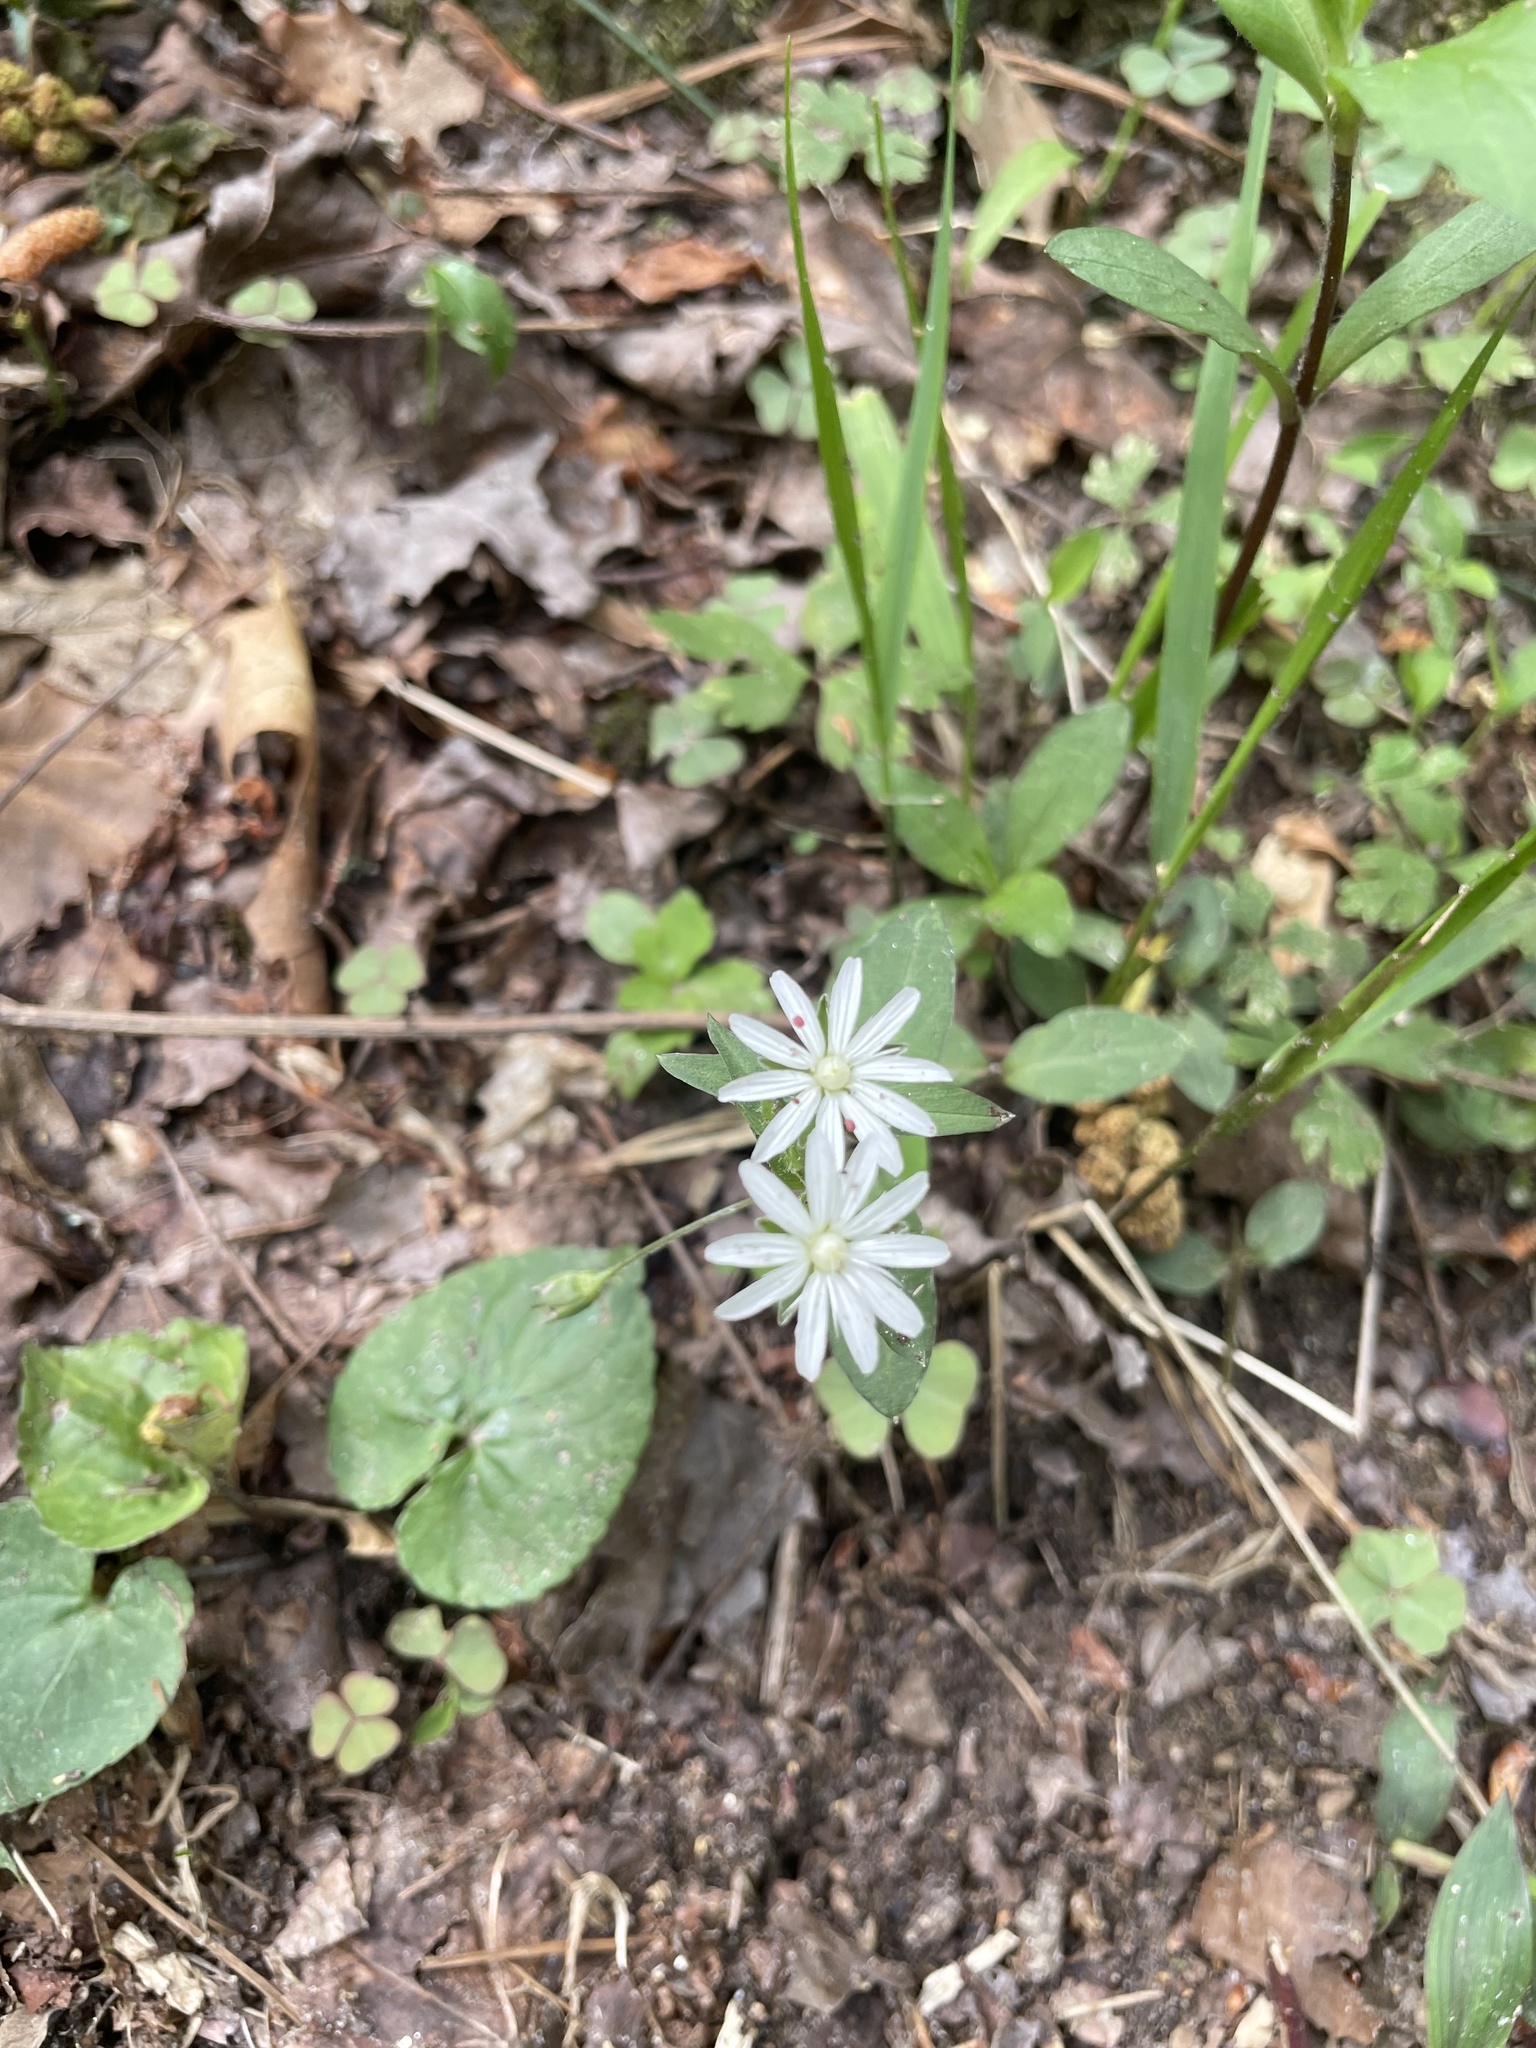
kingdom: Plantae
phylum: Tracheophyta
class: Magnoliopsida
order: Caryophyllales
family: Caryophyllaceae
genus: Stellaria
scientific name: Stellaria pubera
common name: Star chickweed
